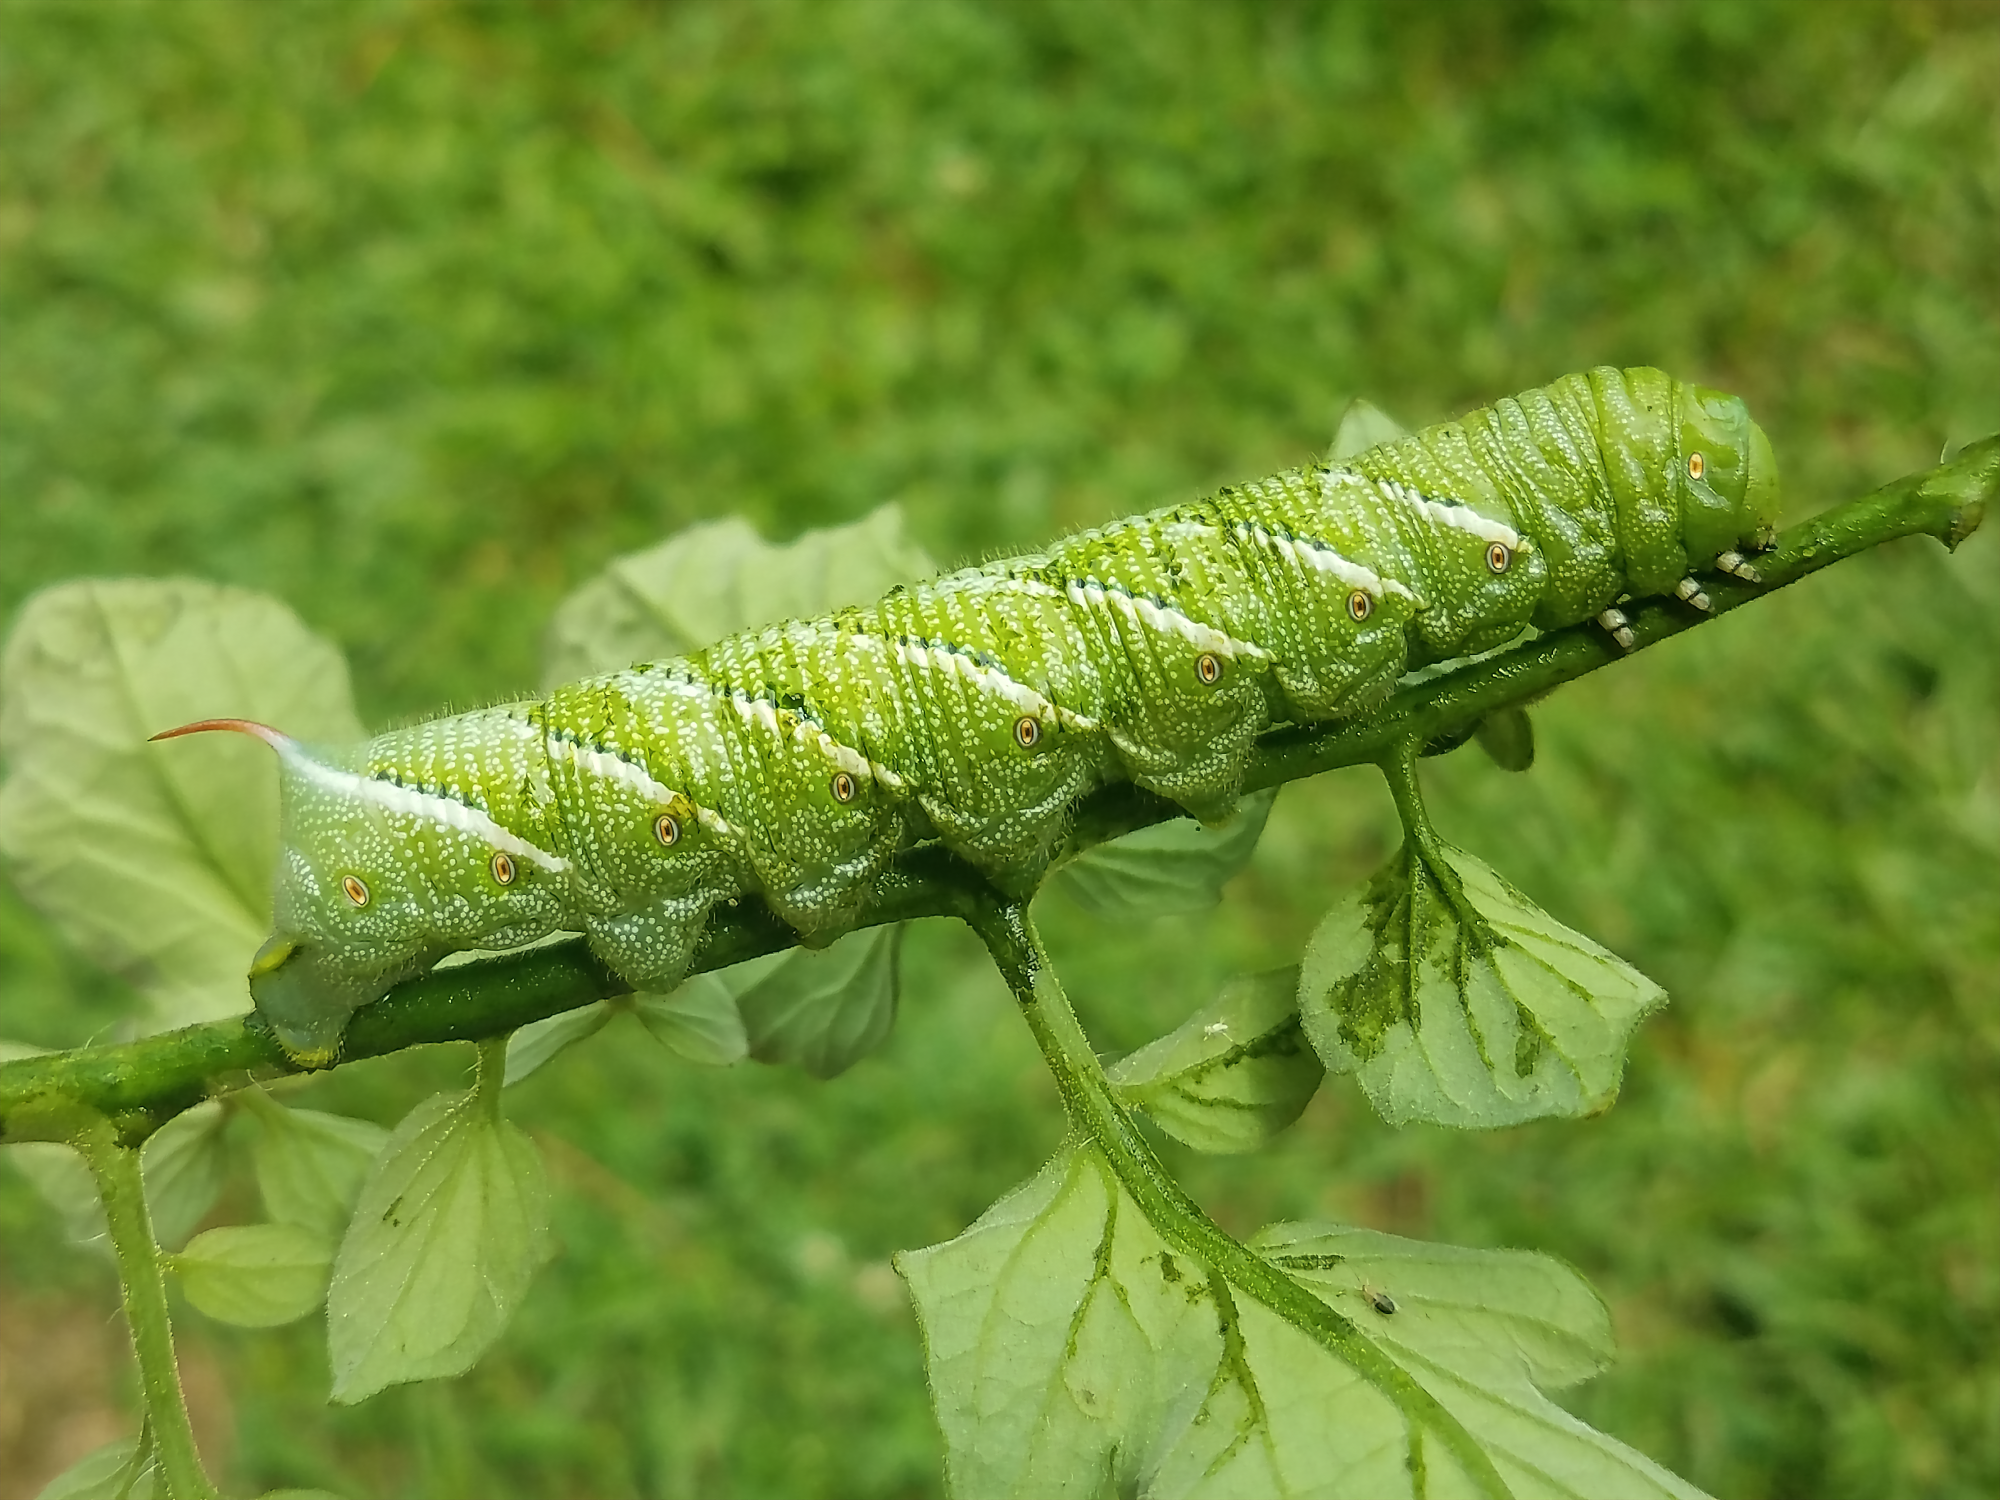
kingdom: Animalia
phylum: Arthropoda
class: Insecta
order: Lepidoptera
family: Sphingidae
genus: Manduca
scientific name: Manduca sexta
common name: Carolina sphinx
